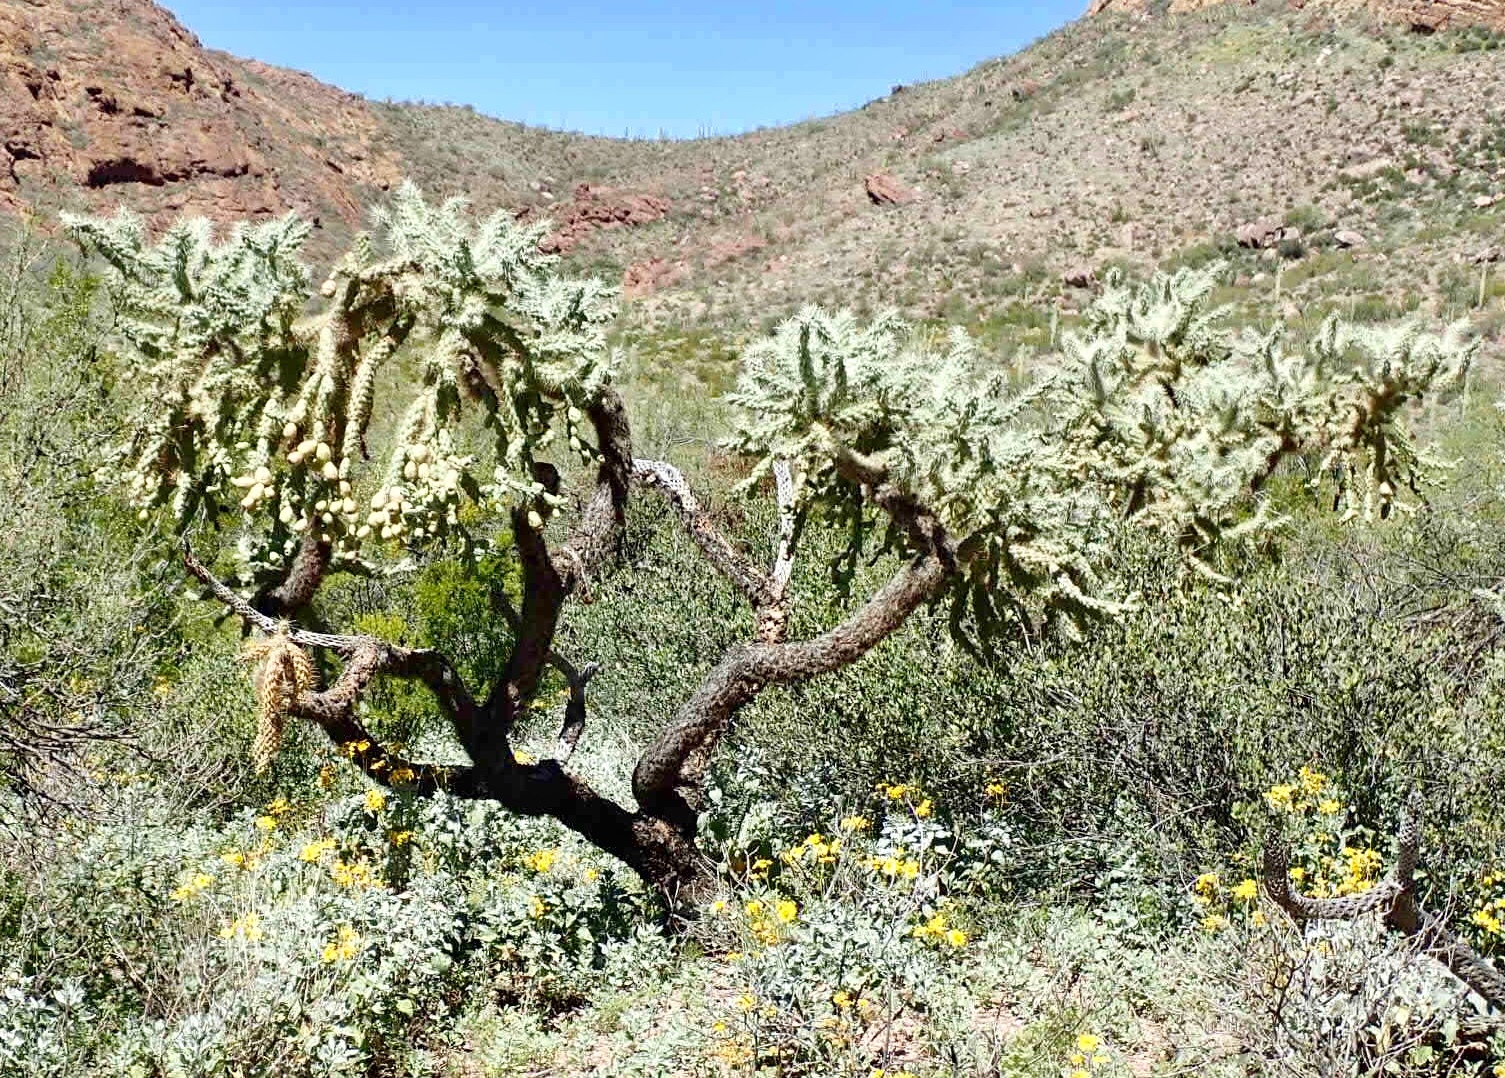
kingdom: Plantae
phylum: Tracheophyta
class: Magnoliopsida
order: Caryophyllales
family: Cactaceae
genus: Cylindropuntia
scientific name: Cylindropuntia fulgida
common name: Jumping cholla
